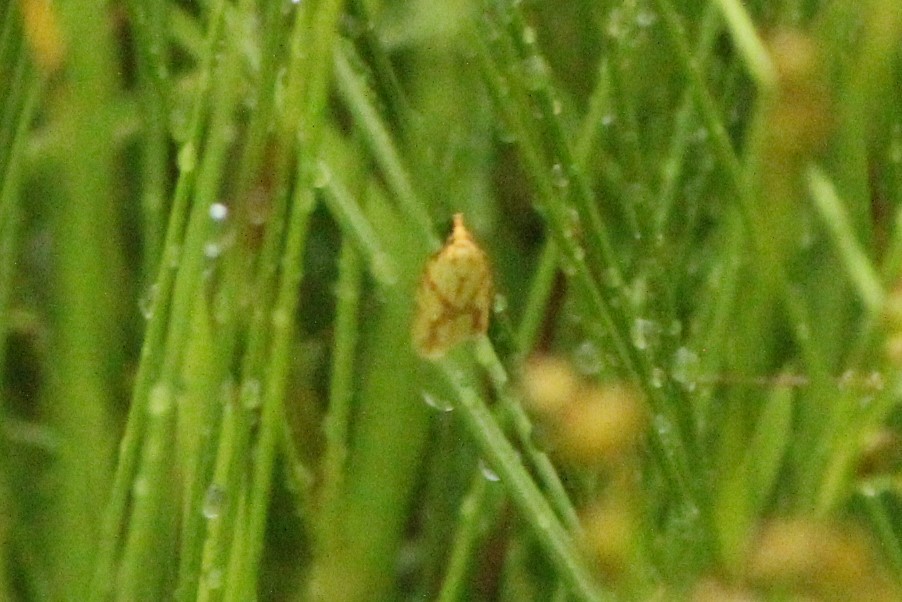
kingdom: Animalia
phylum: Arthropoda
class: Insecta
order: Lepidoptera
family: Tortricidae
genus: Sparganothis
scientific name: Sparganothis sulfureana
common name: Sparganothis fruitworm moth
